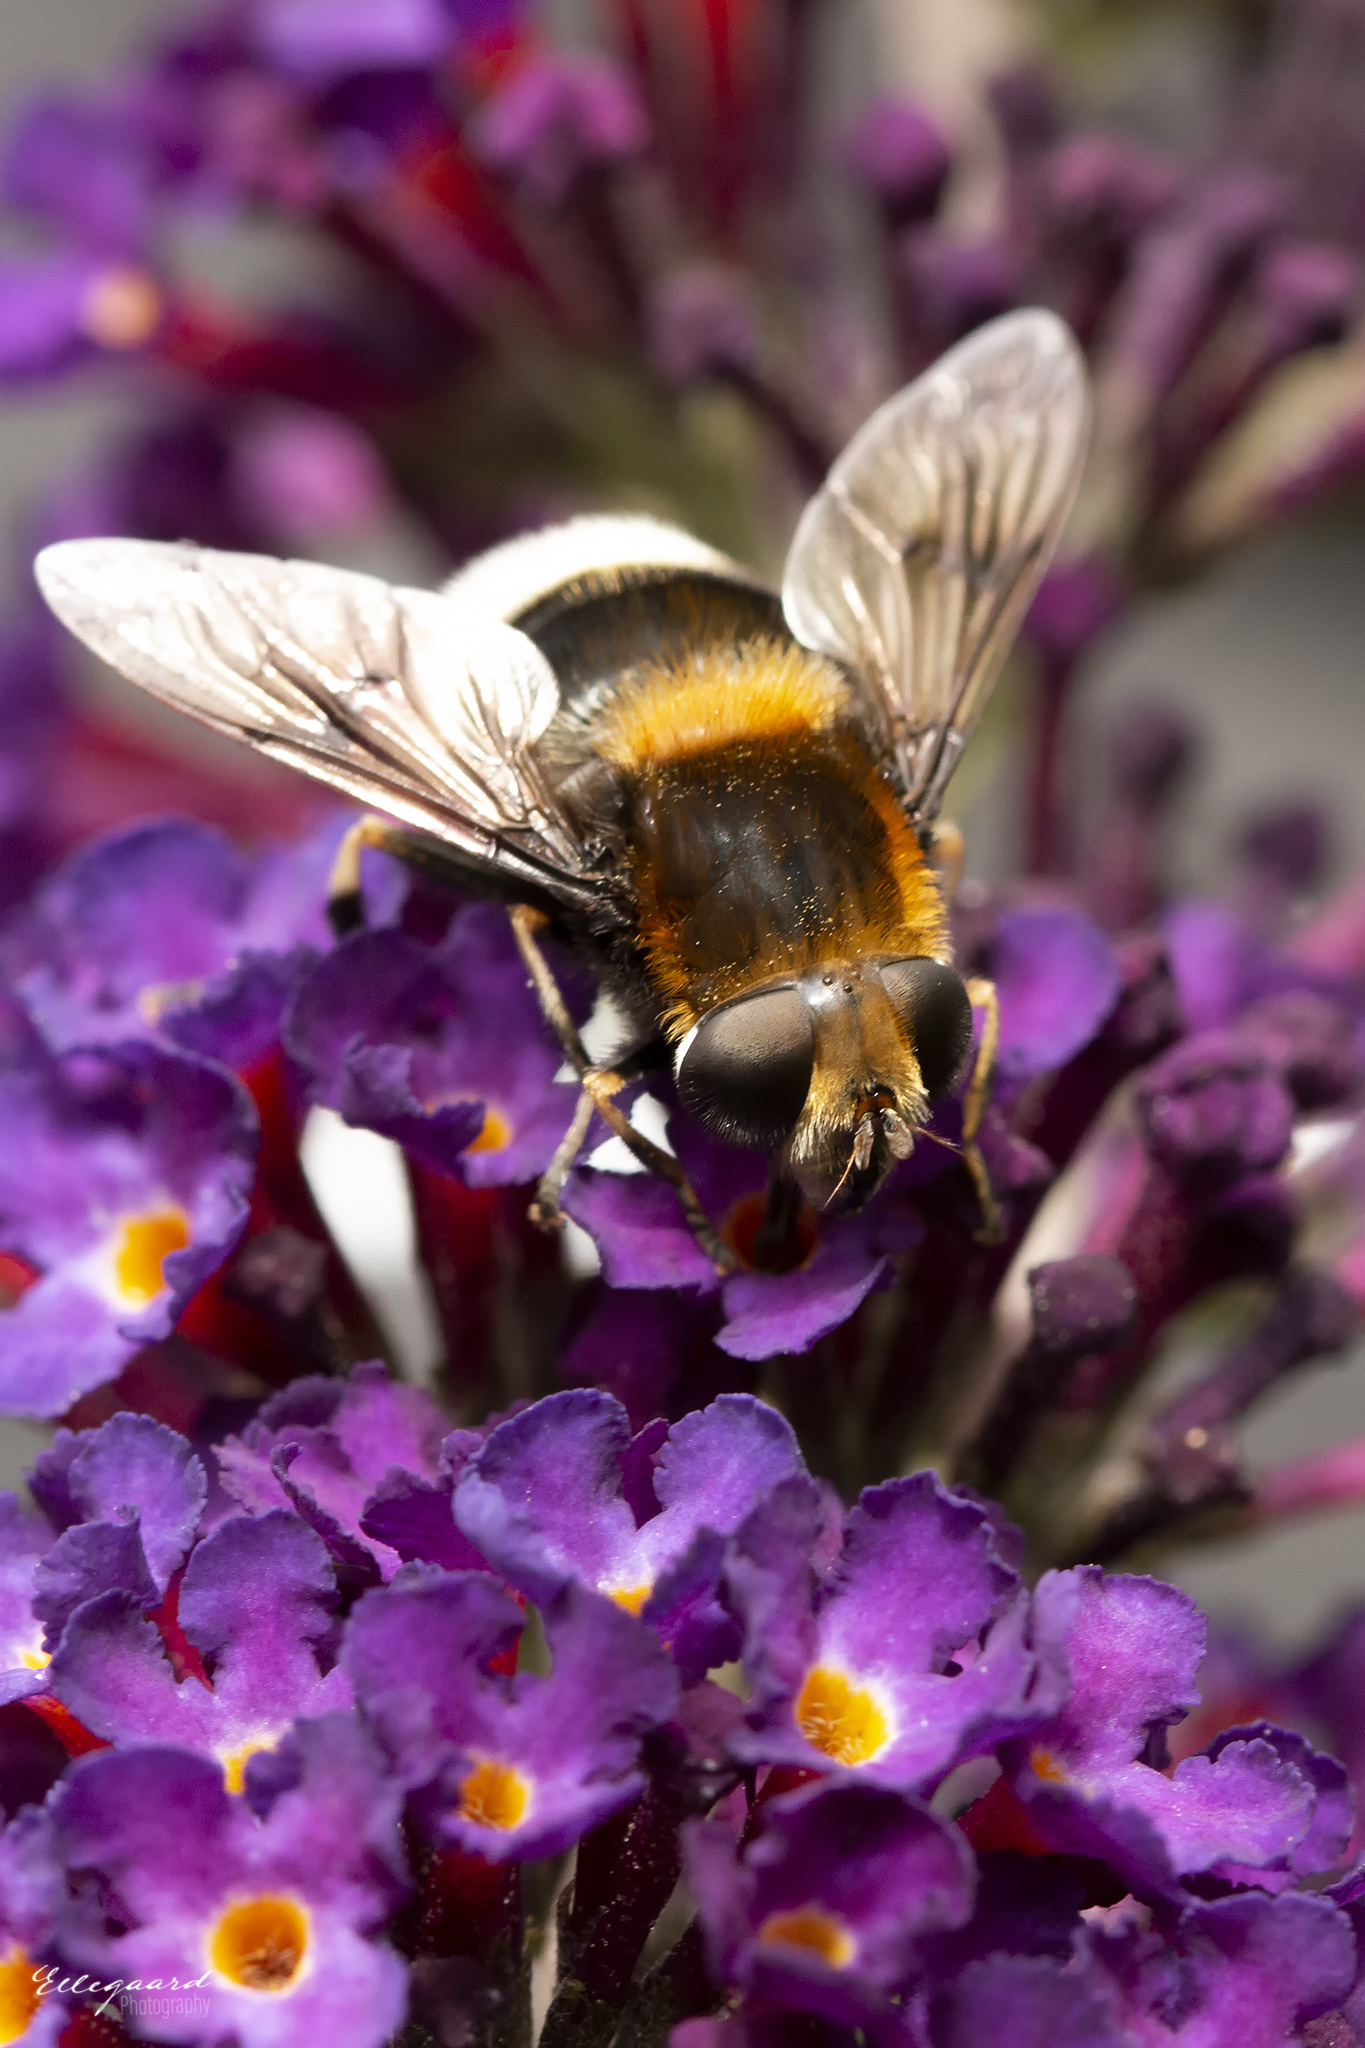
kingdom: Animalia
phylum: Arthropoda
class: Insecta
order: Diptera
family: Syrphidae
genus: Eristalis
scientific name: Eristalis intricaria
